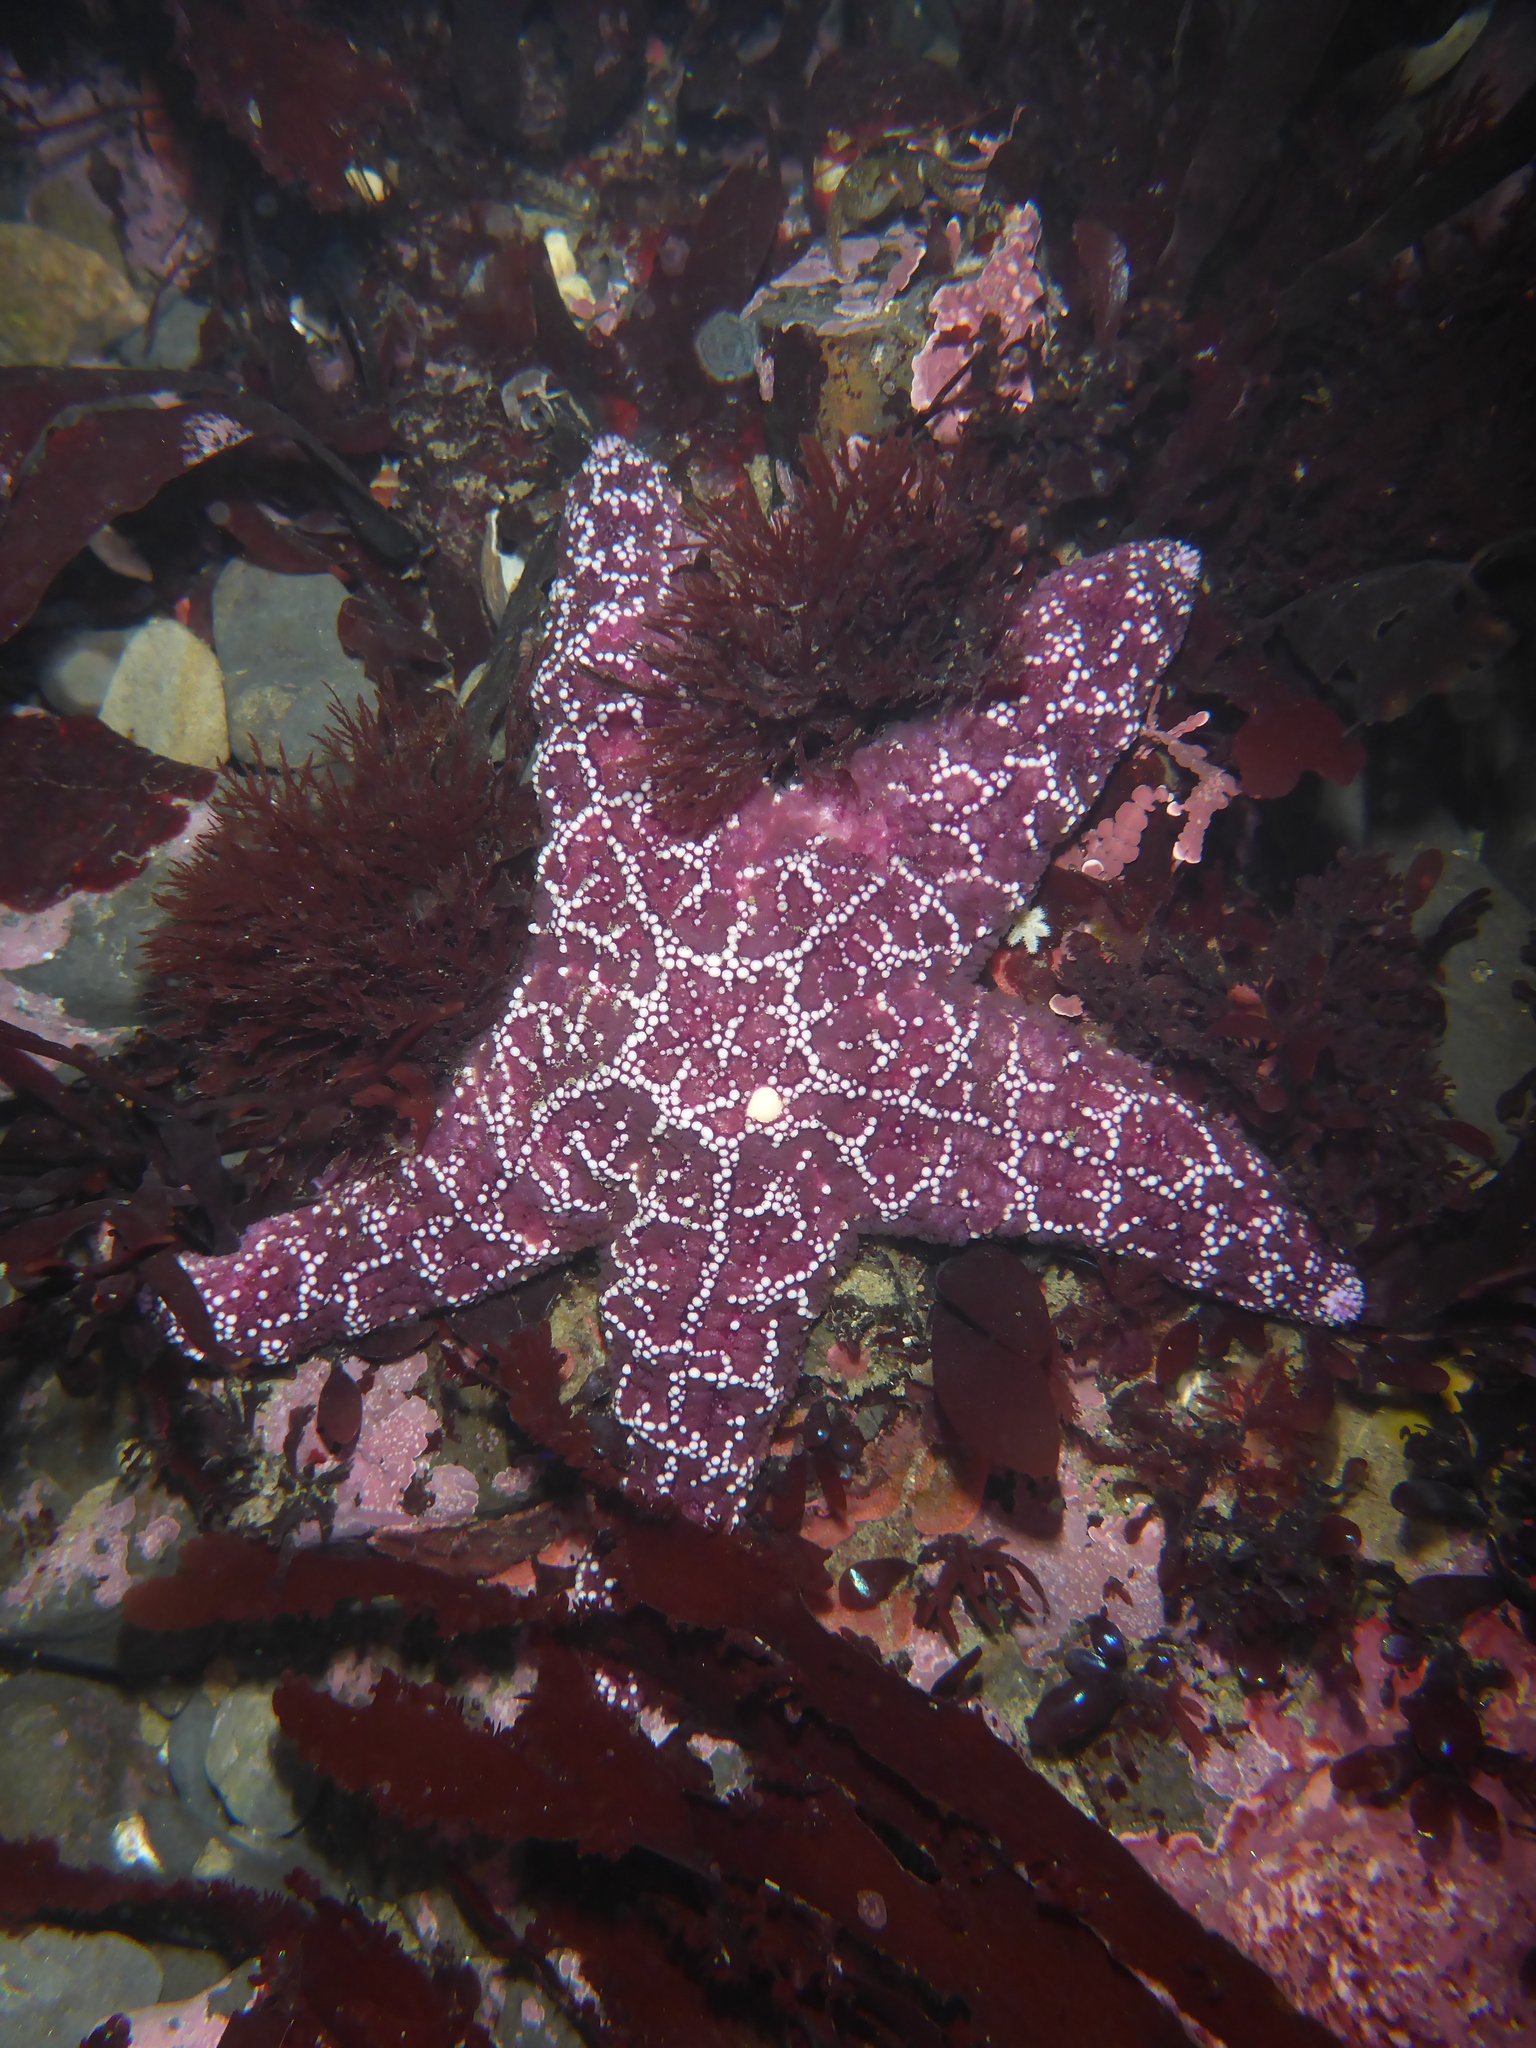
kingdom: Animalia
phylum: Echinodermata
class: Asteroidea
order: Forcipulatida
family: Asteriidae
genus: Pisaster
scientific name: Pisaster ochraceus
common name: Ochre stars
